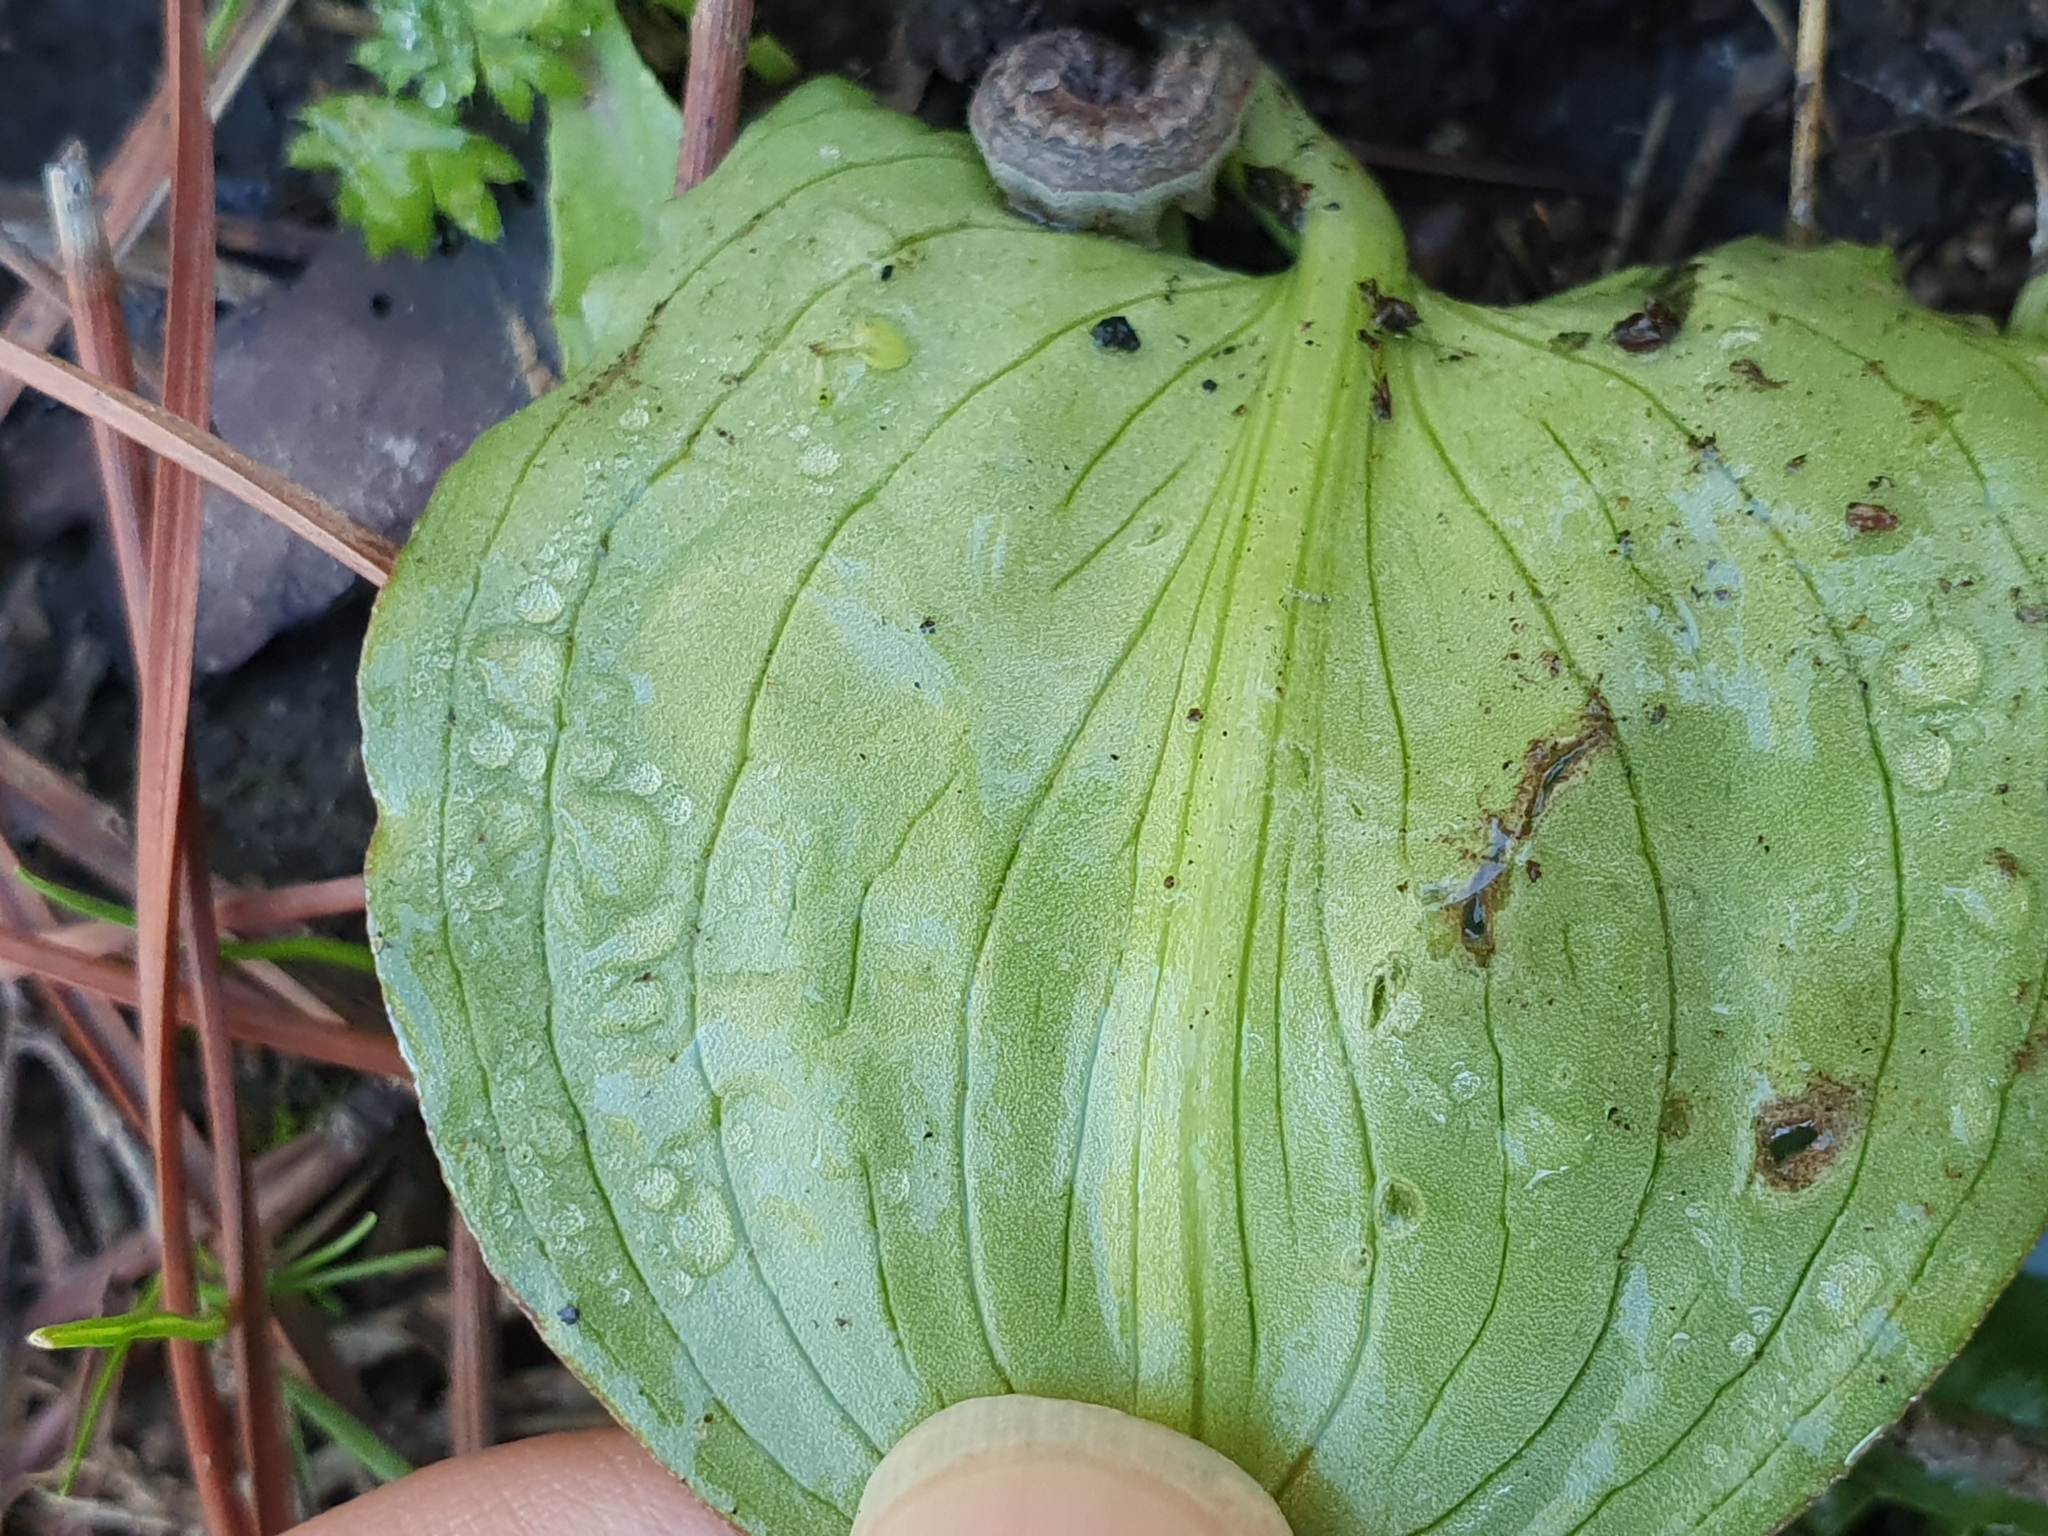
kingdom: Plantae
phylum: Tracheophyta
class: Liliopsida
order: Alismatales
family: Araceae
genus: Ambrosina
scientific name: Ambrosina bassii
